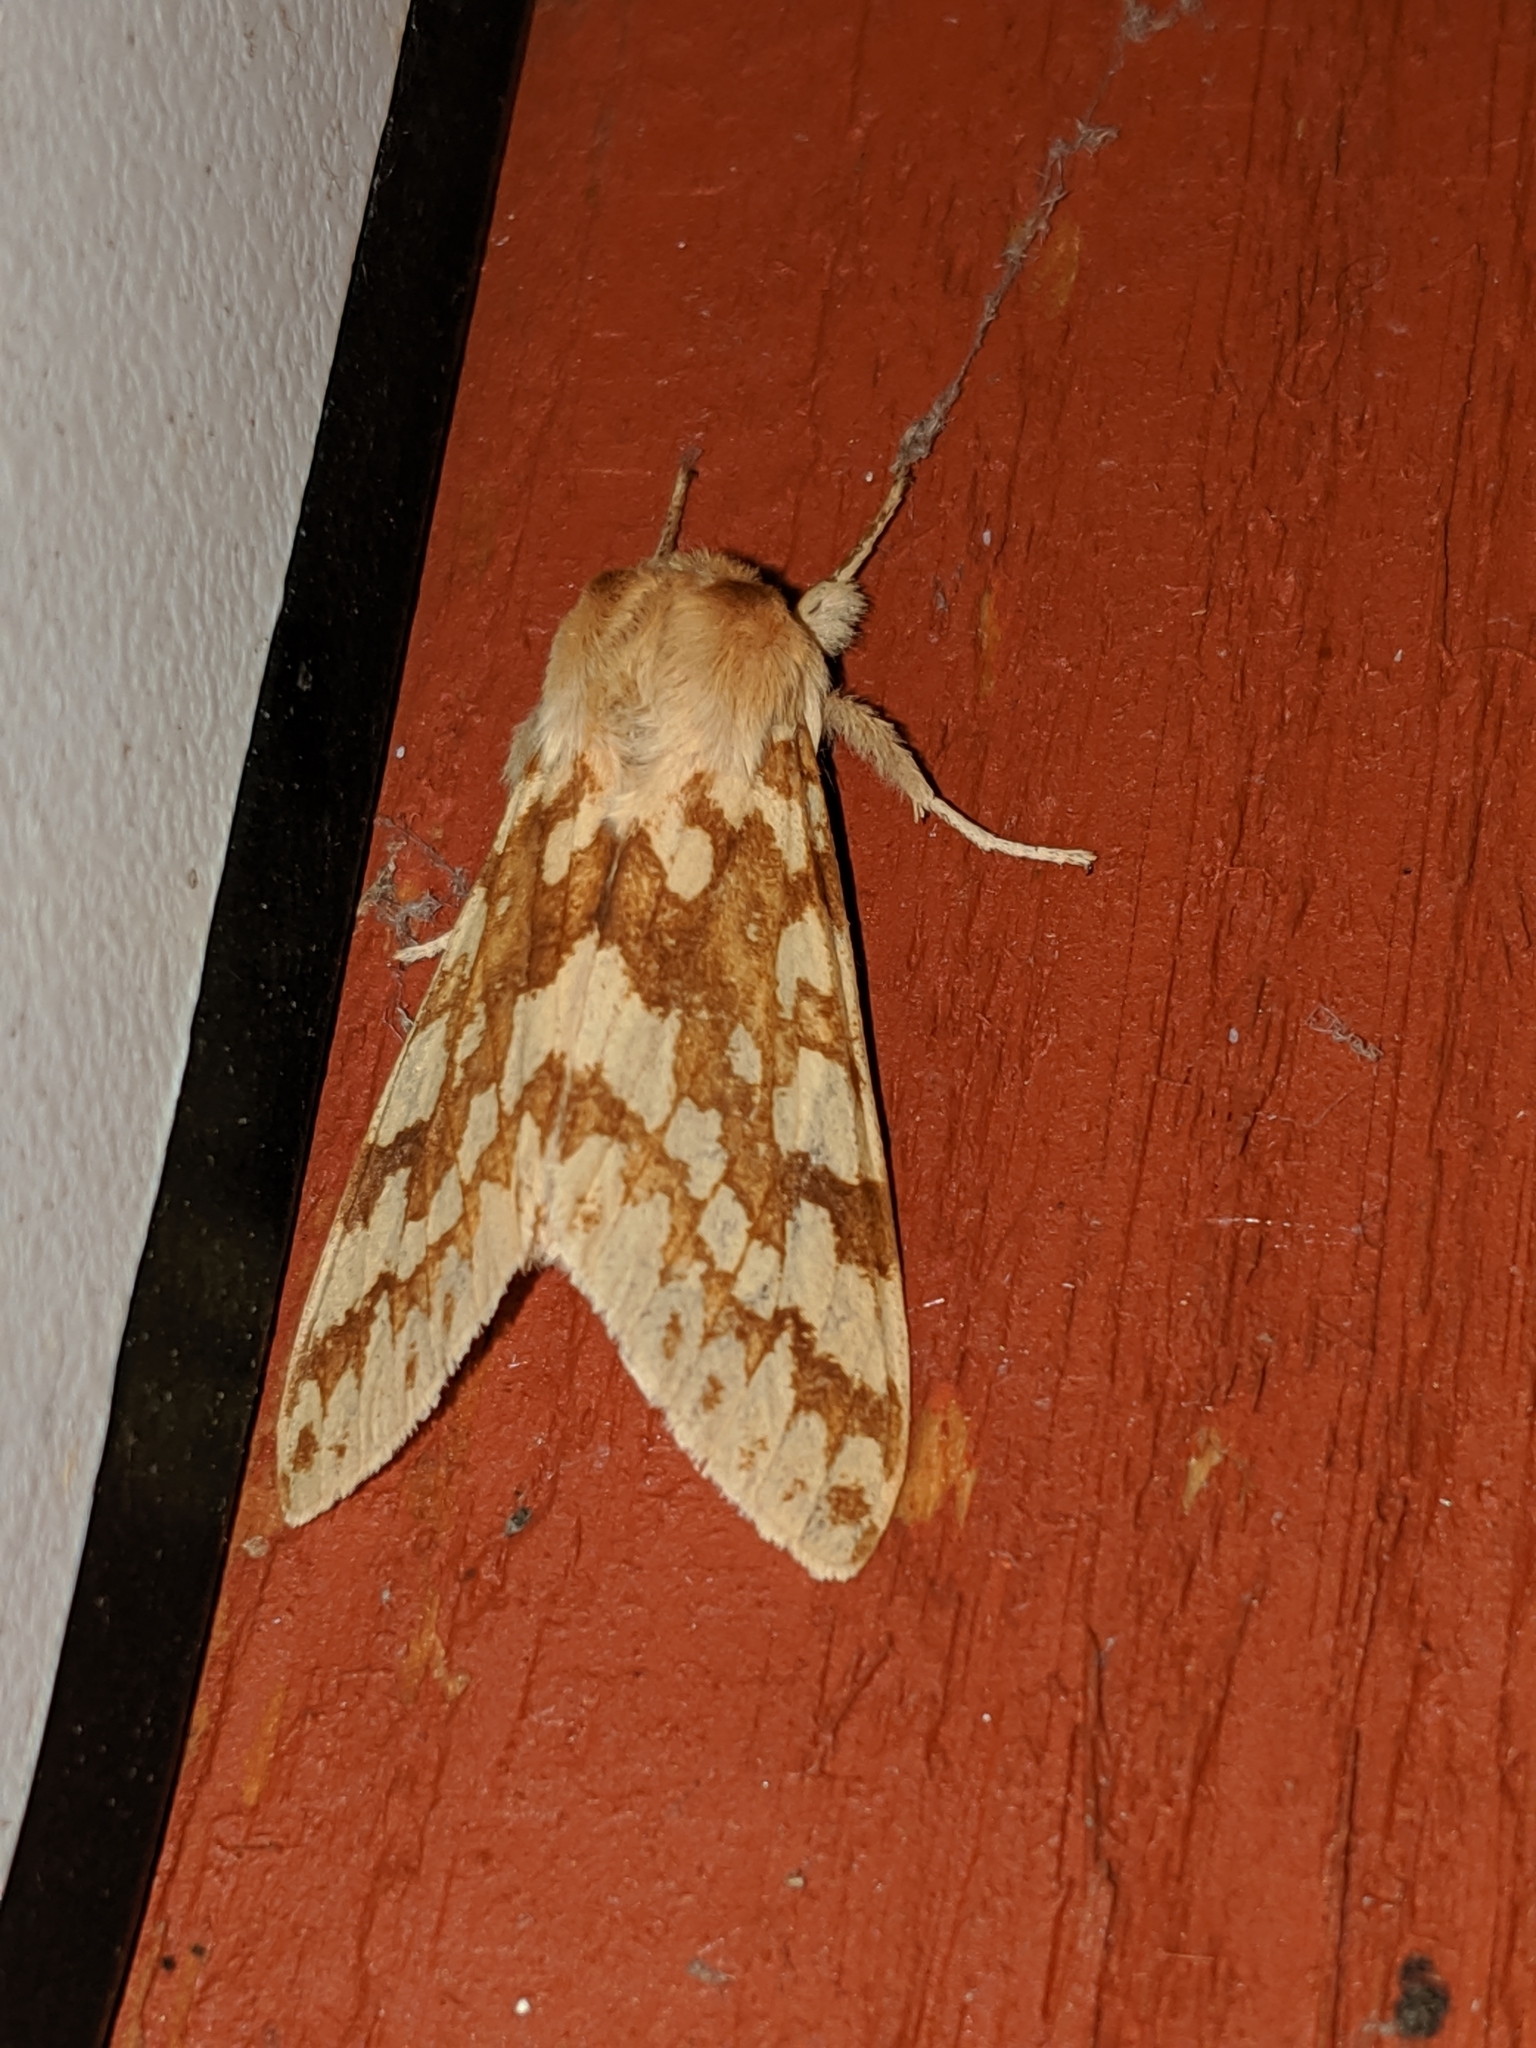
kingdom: Animalia
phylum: Arthropoda
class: Insecta
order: Lepidoptera
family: Erebidae
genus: Lophocampa
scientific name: Lophocampa maculata
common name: Spotted tussock moth
